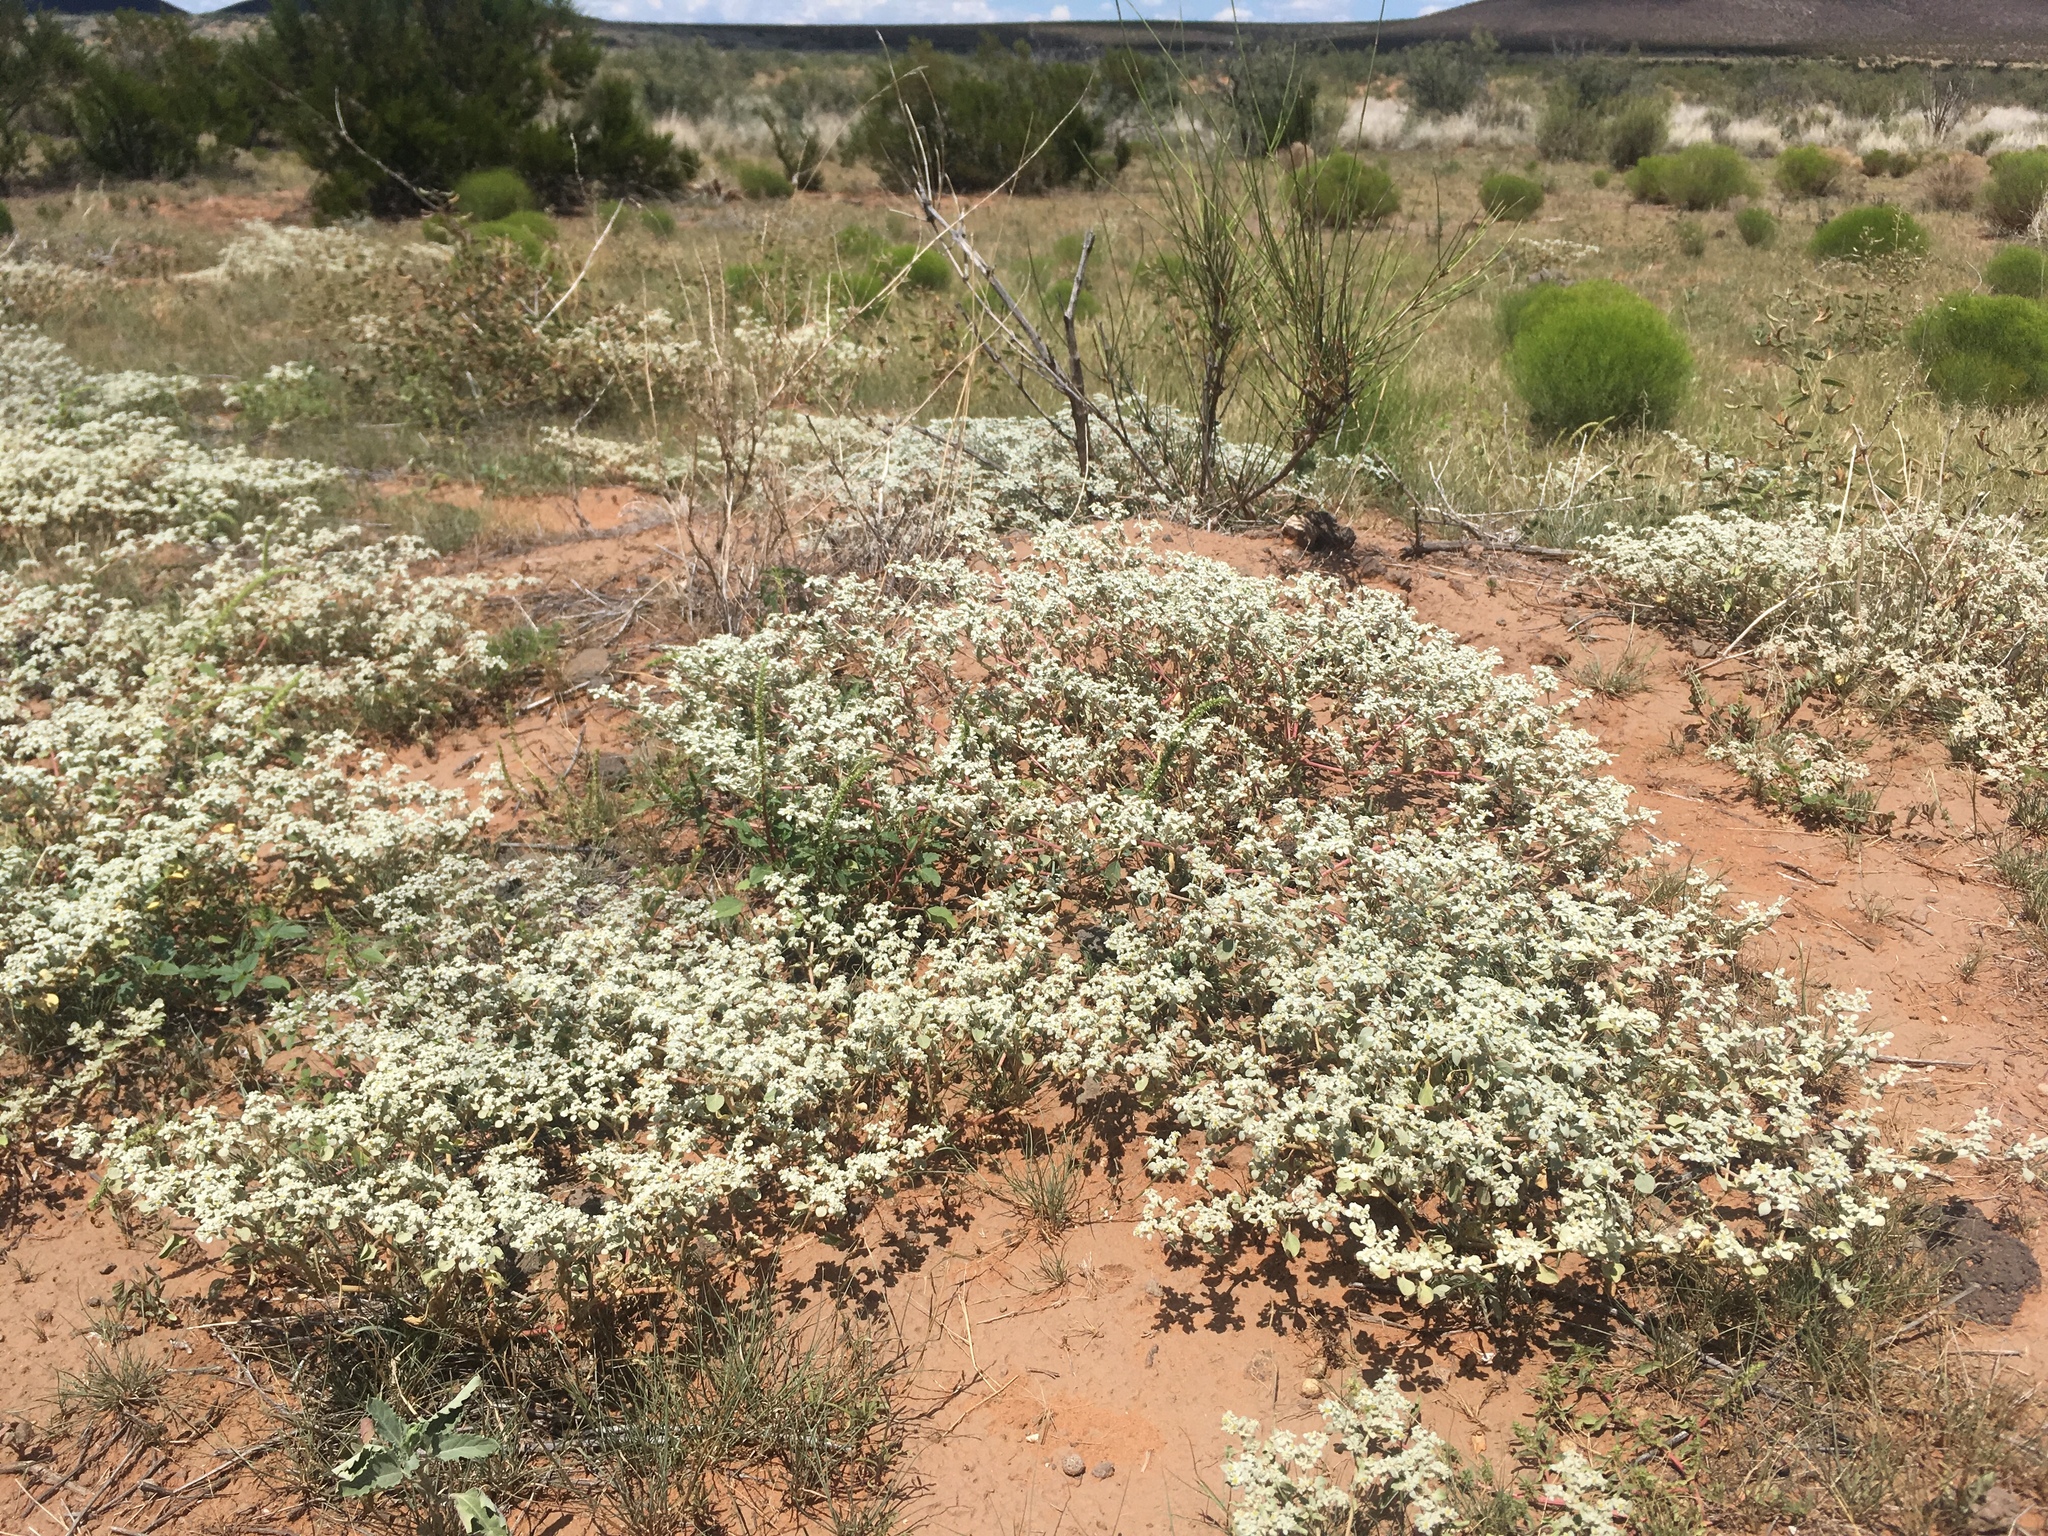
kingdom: Plantae
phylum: Tracheophyta
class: Magnoliopsida
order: Caryophyllales
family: Amaranthaceae
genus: Tidestromia
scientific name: Tidestromia lanuginosa
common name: Woolly tidestromia
